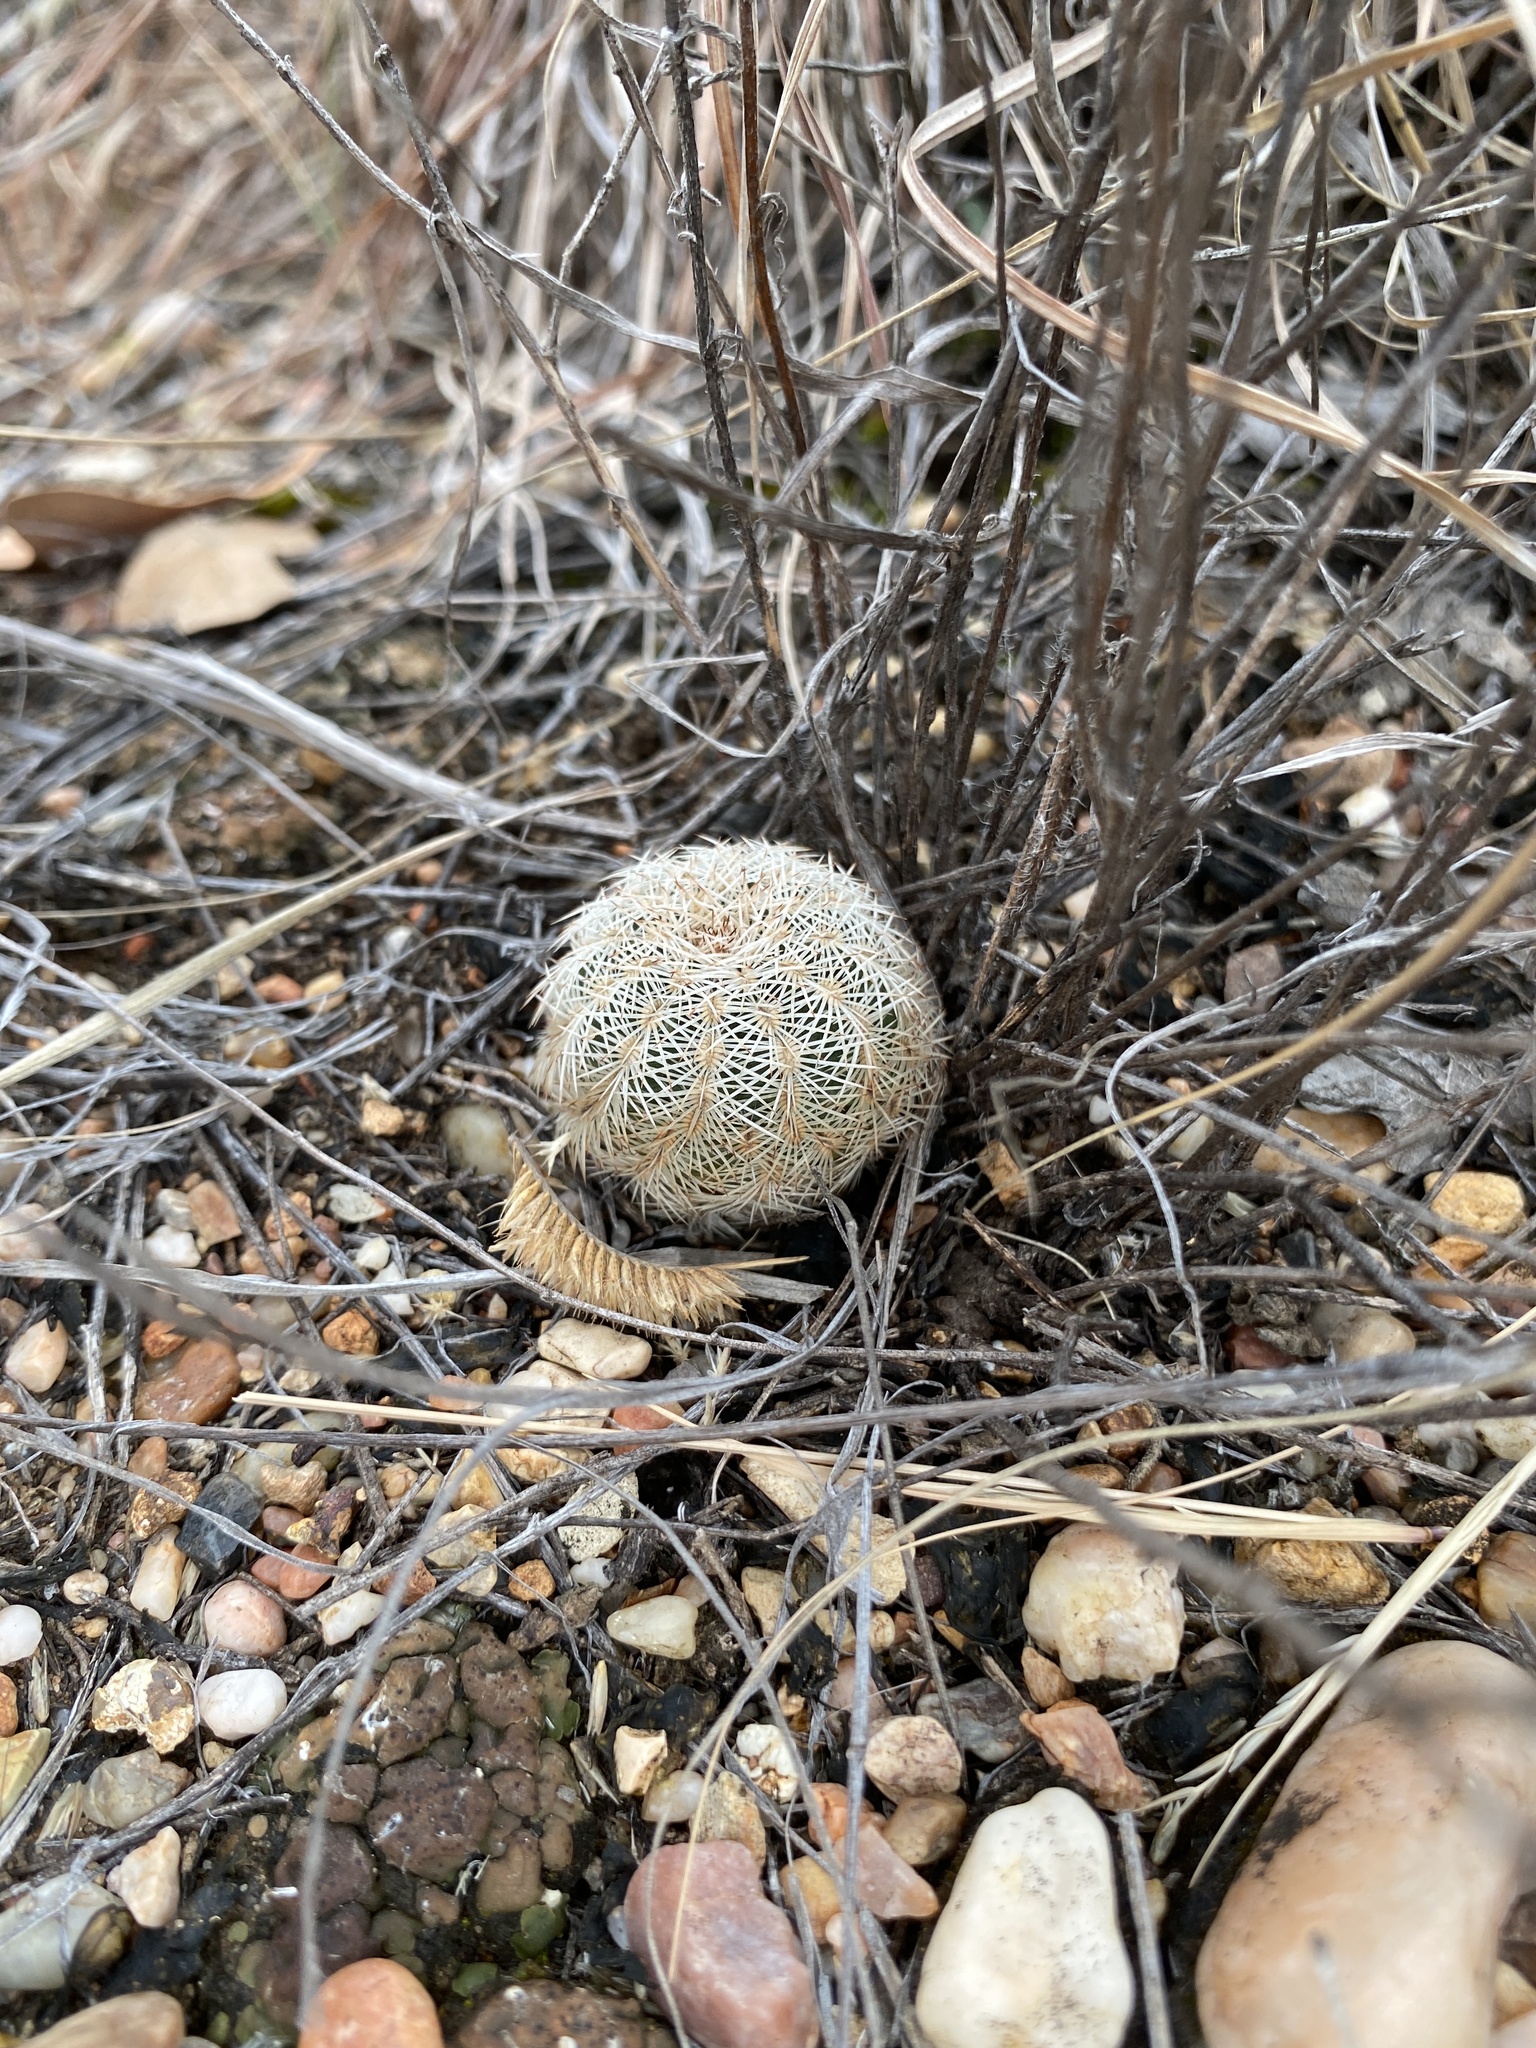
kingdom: Plantae
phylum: Tracheophyta
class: Magnoliopsida
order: Caryophyllales
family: Cactaceae
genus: Echinocereus
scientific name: Echinocereus reichenbachii
